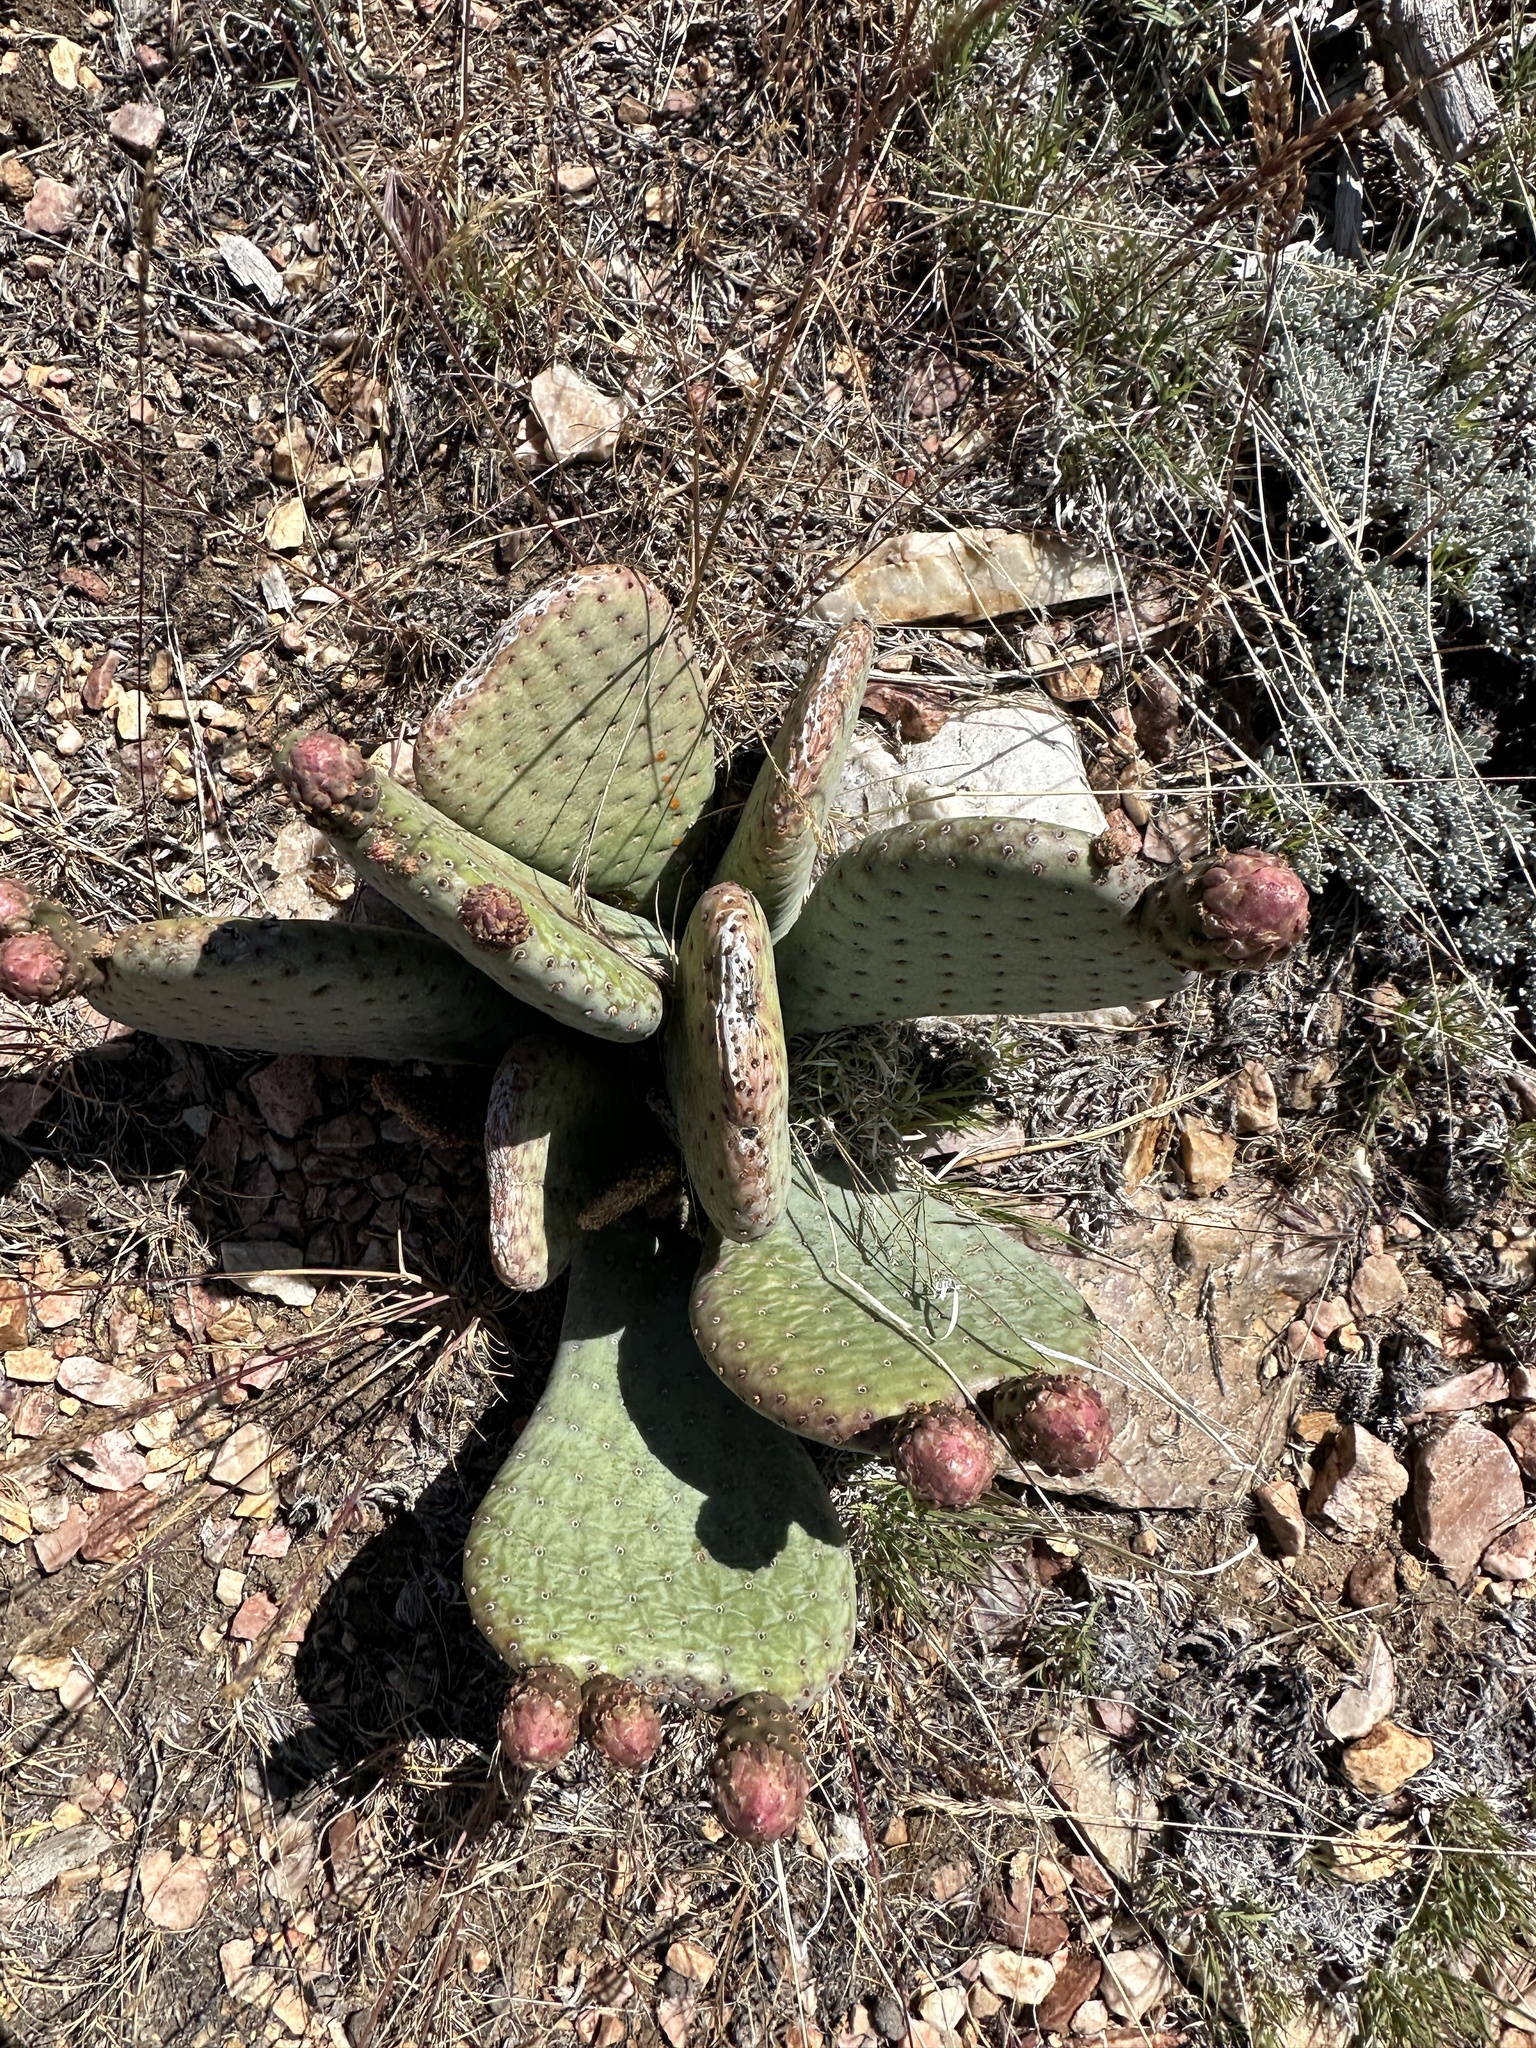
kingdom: Plantae
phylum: Tracheophyta
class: Magnoliopsida
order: Caryophyllales
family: Cactaceae
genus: Opuntia
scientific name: Opuntia basilaris
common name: Beavertail prickly-pear
